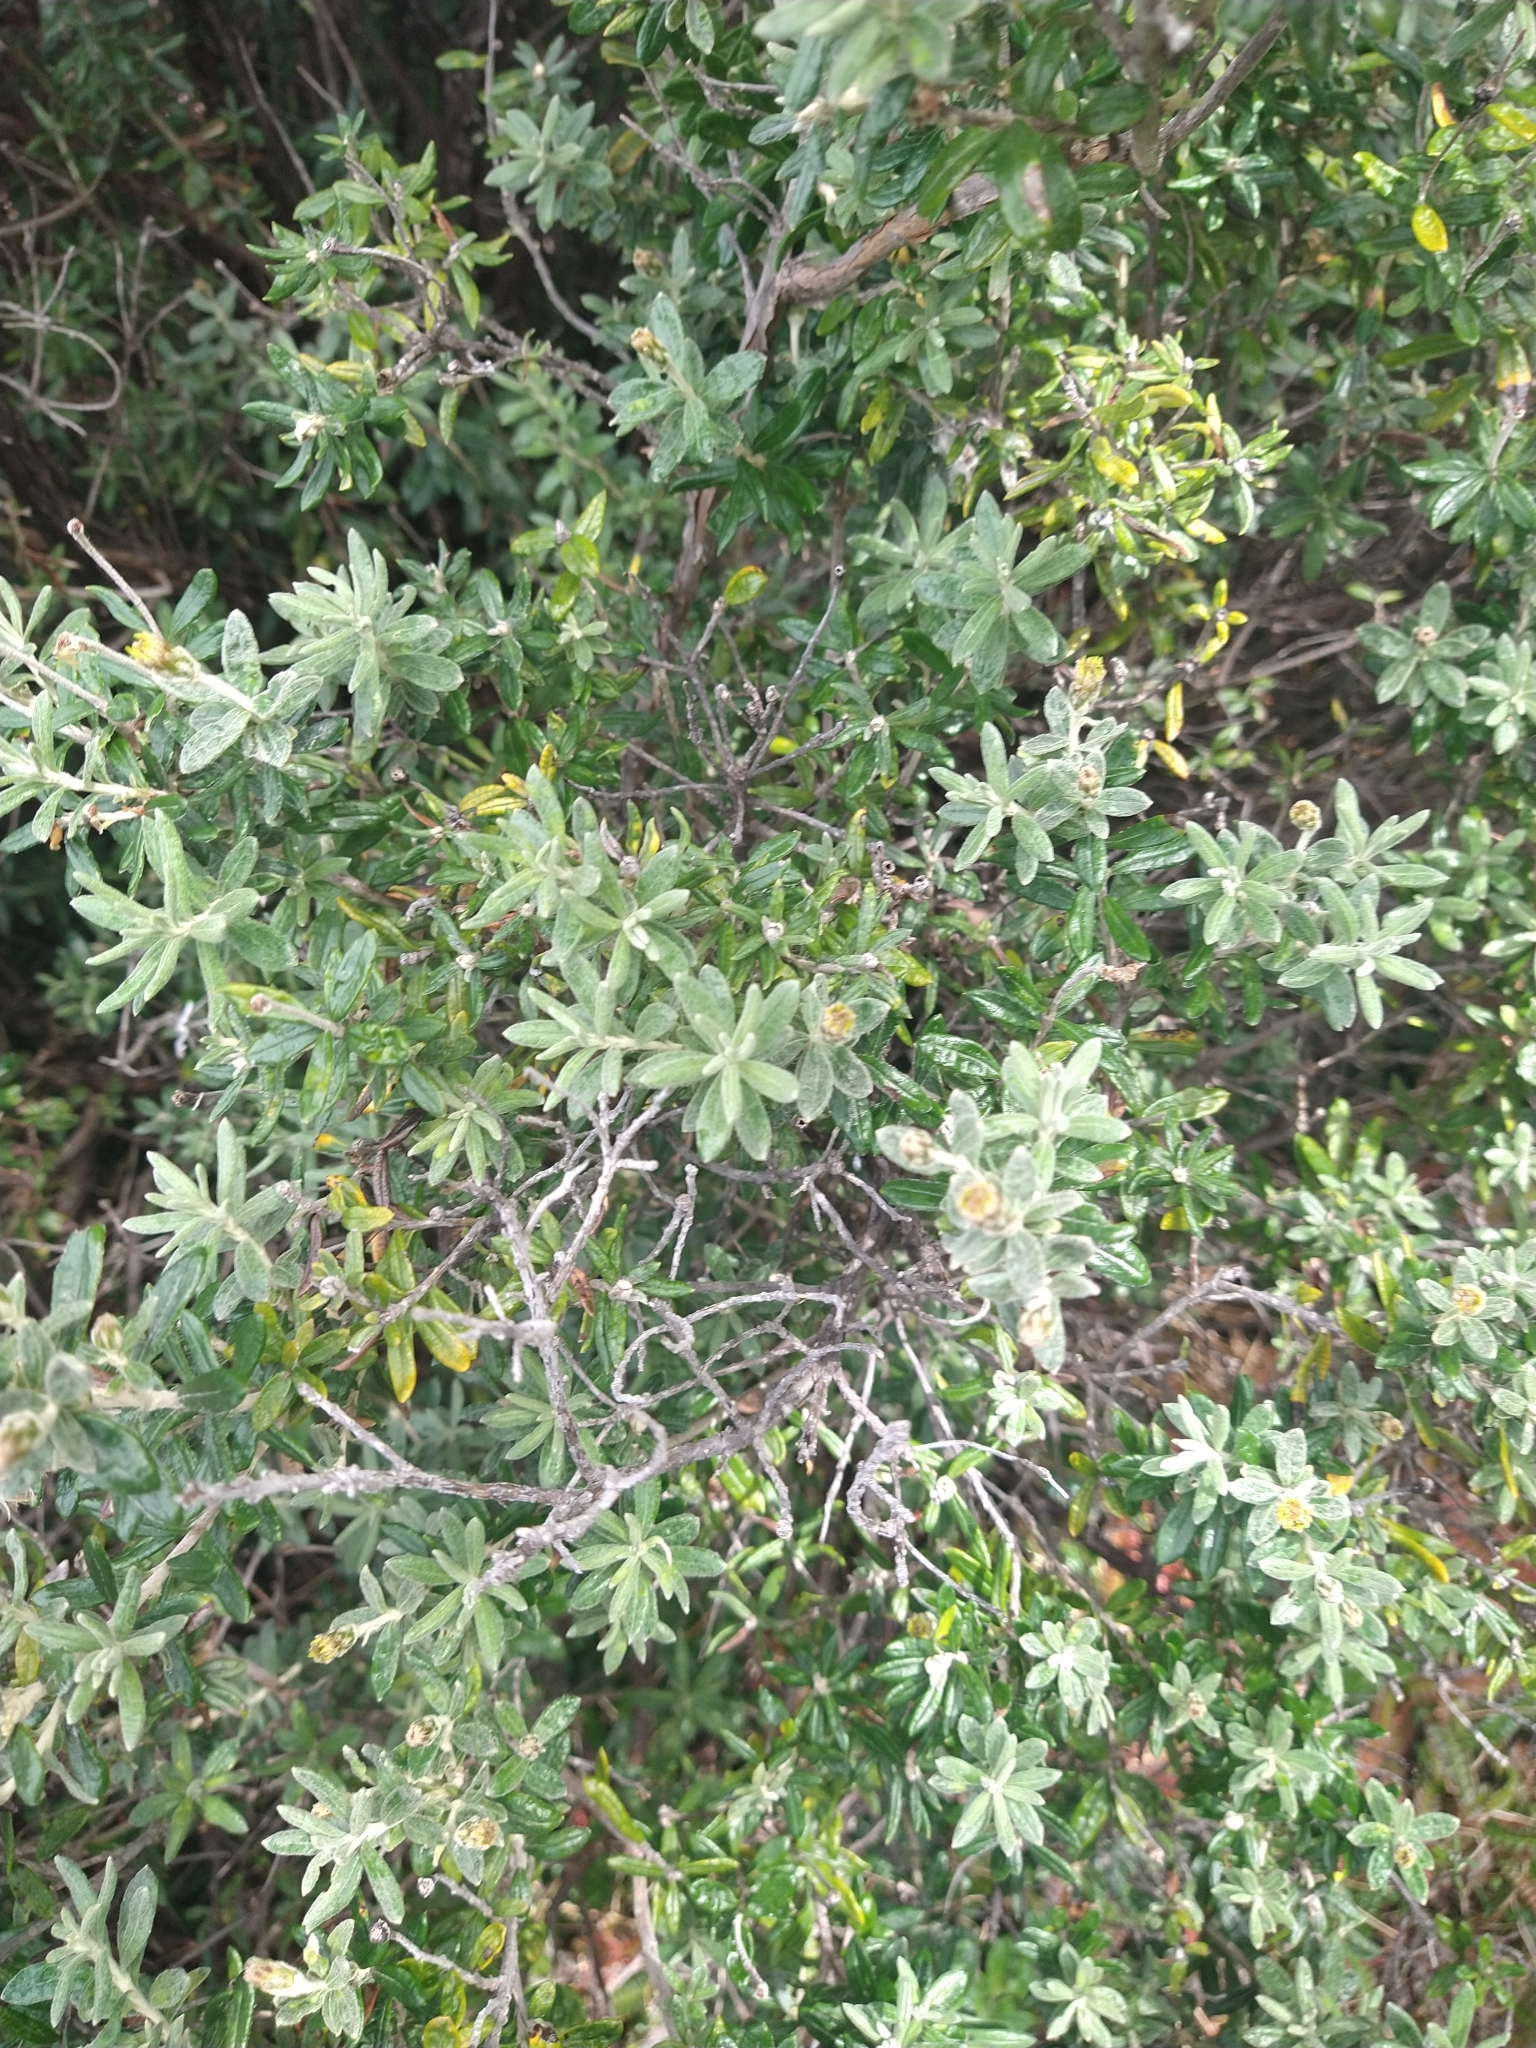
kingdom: Plantae
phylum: Tracheophyta
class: Magnoliopsida
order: Asterales
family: Asteraceae
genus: Chiliotrichum
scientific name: Chiliotrichum diffusum
